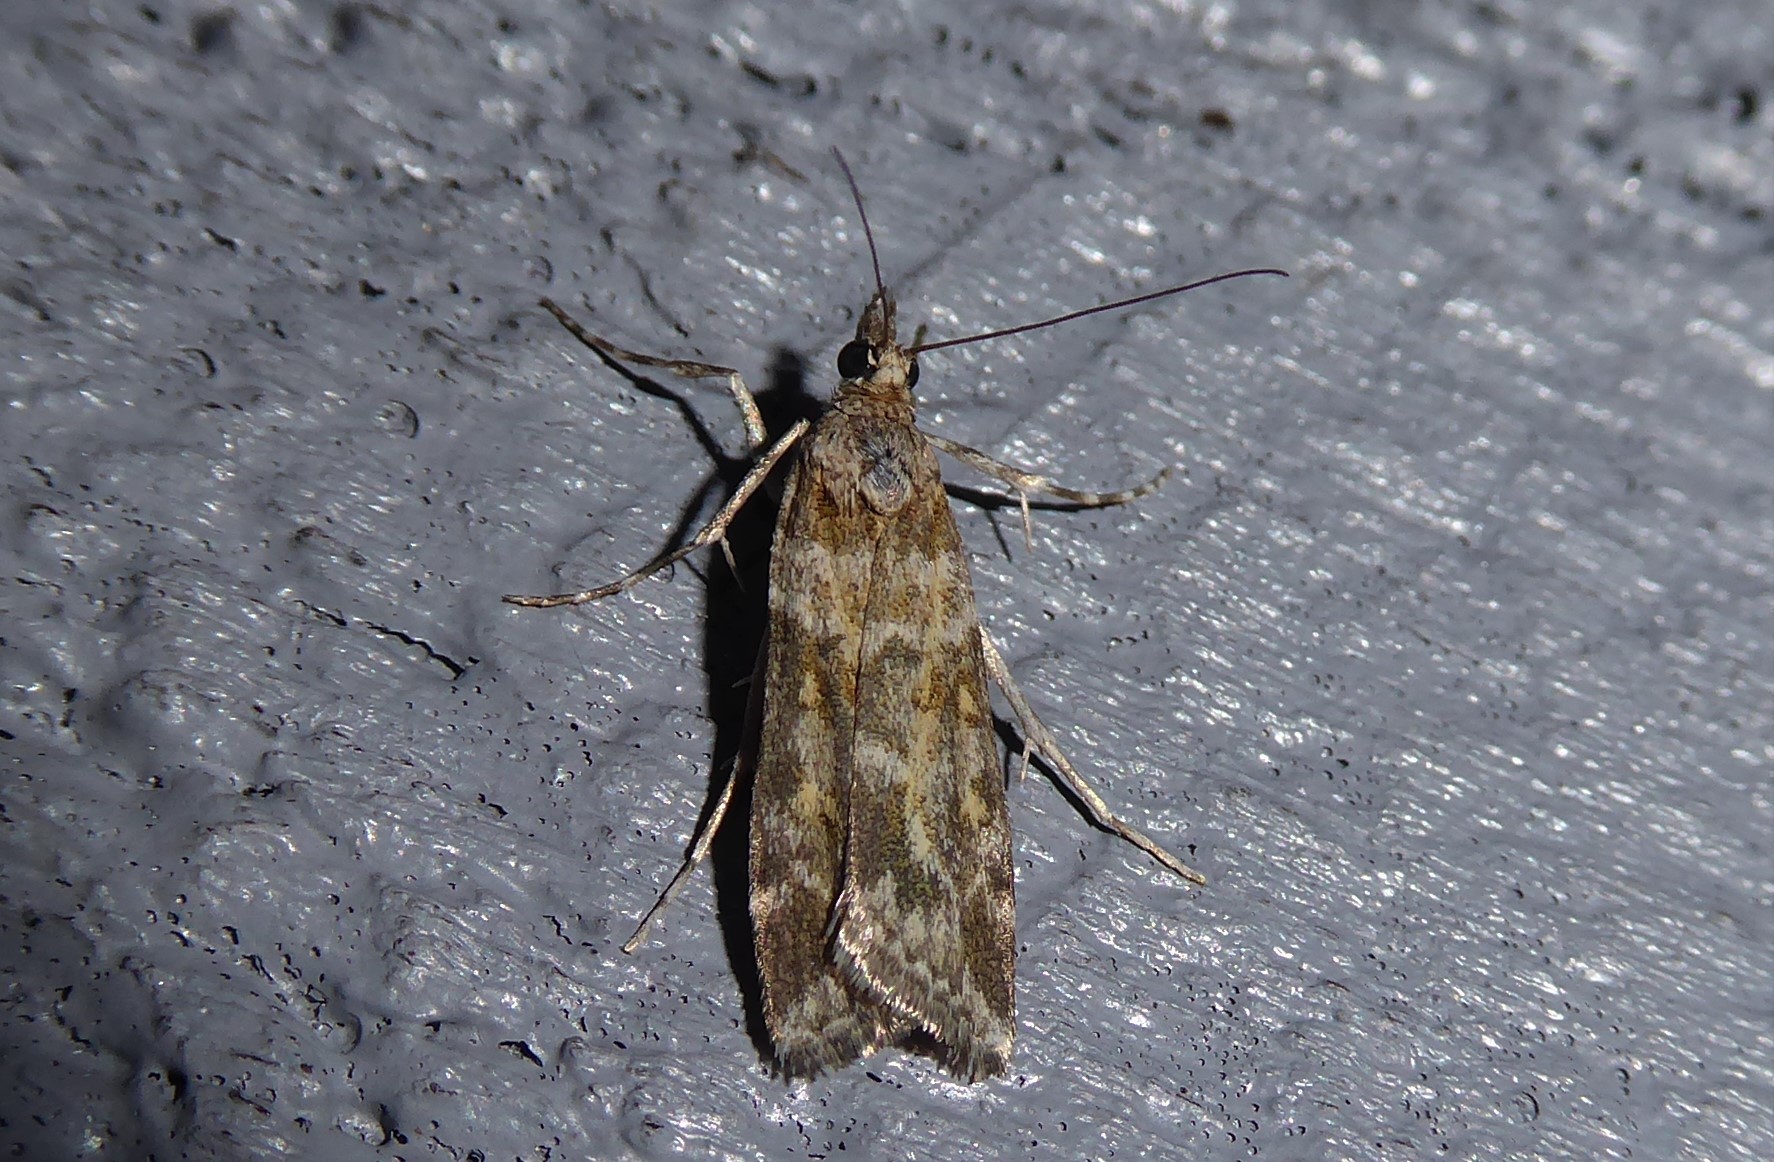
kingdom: Animalia
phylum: Arthropoda
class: Insecta
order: Lepidoptera
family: Crambidae
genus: Eudonia
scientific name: Eudonia diphtheralis
